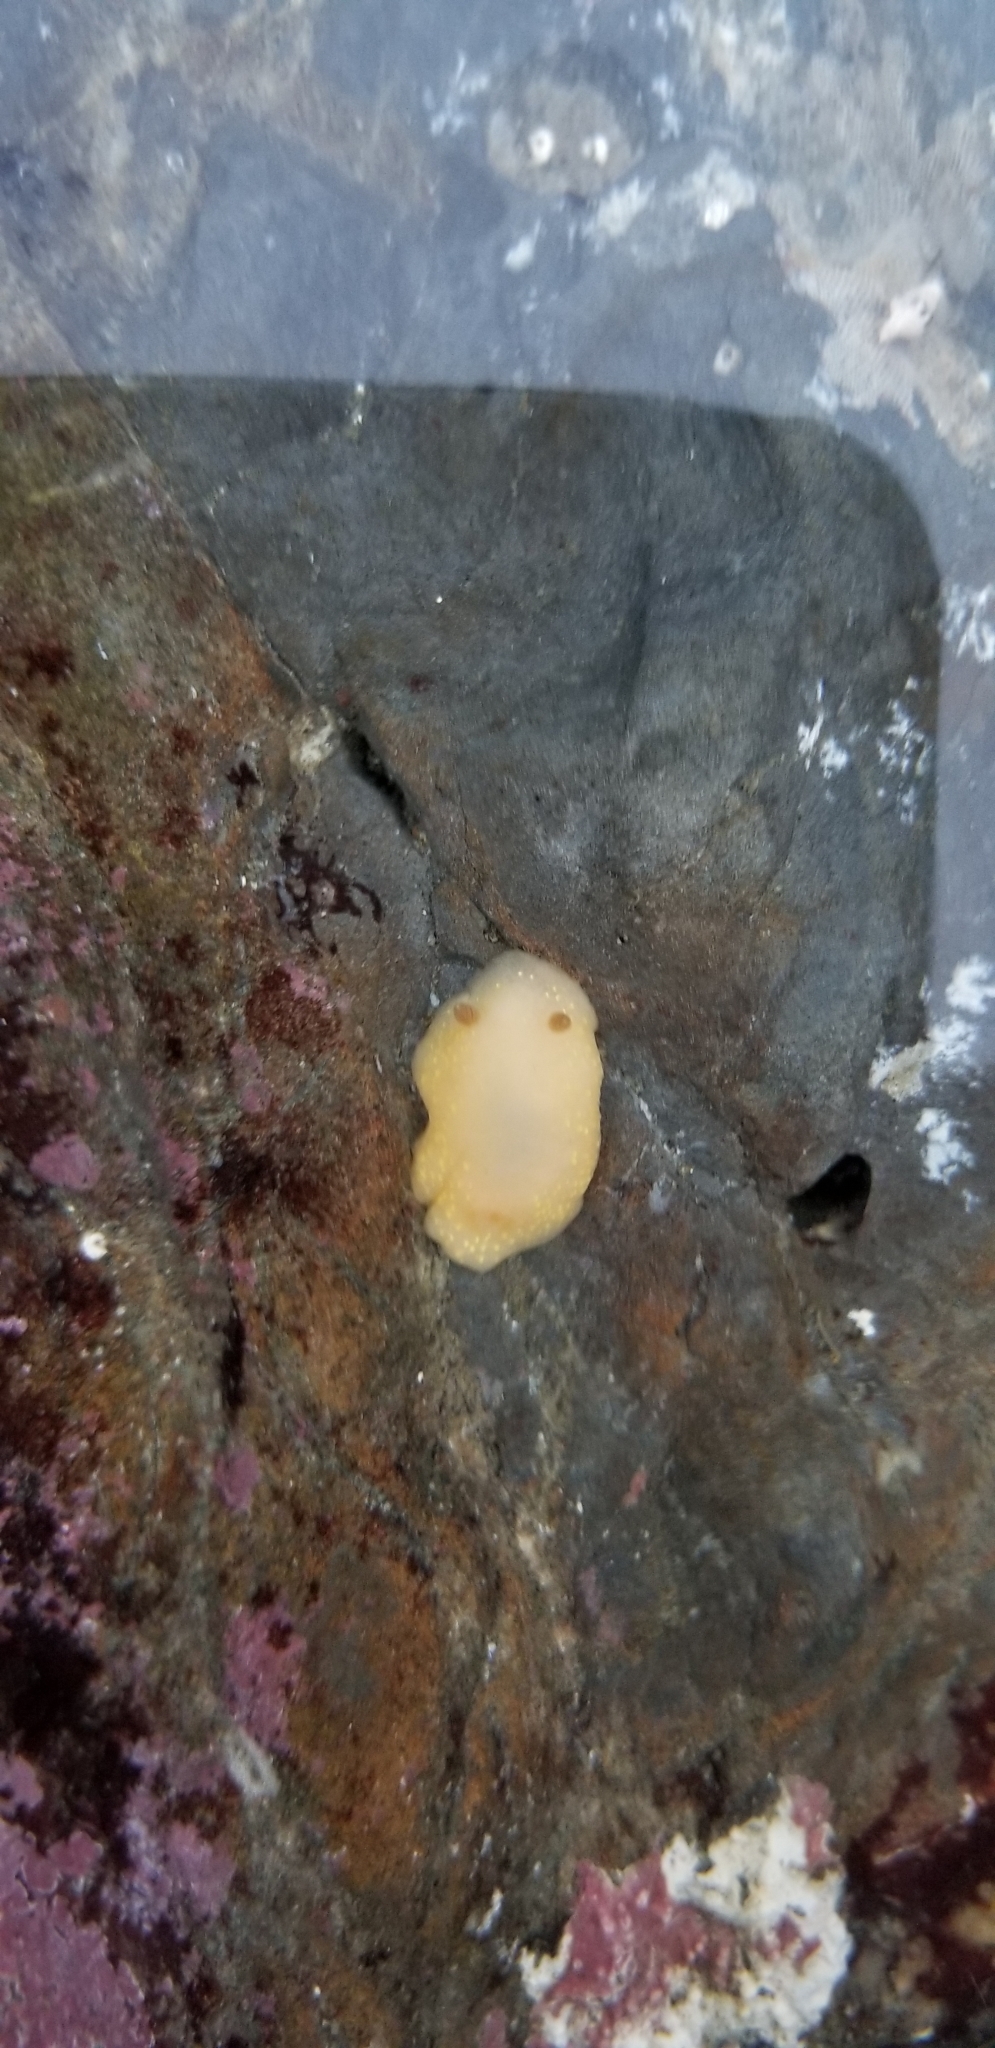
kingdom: Animalia
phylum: Mollusca
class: Gastropoda
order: Nudibranchia
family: Cadlinidae
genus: Cadlina
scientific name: Cadlina modesta
